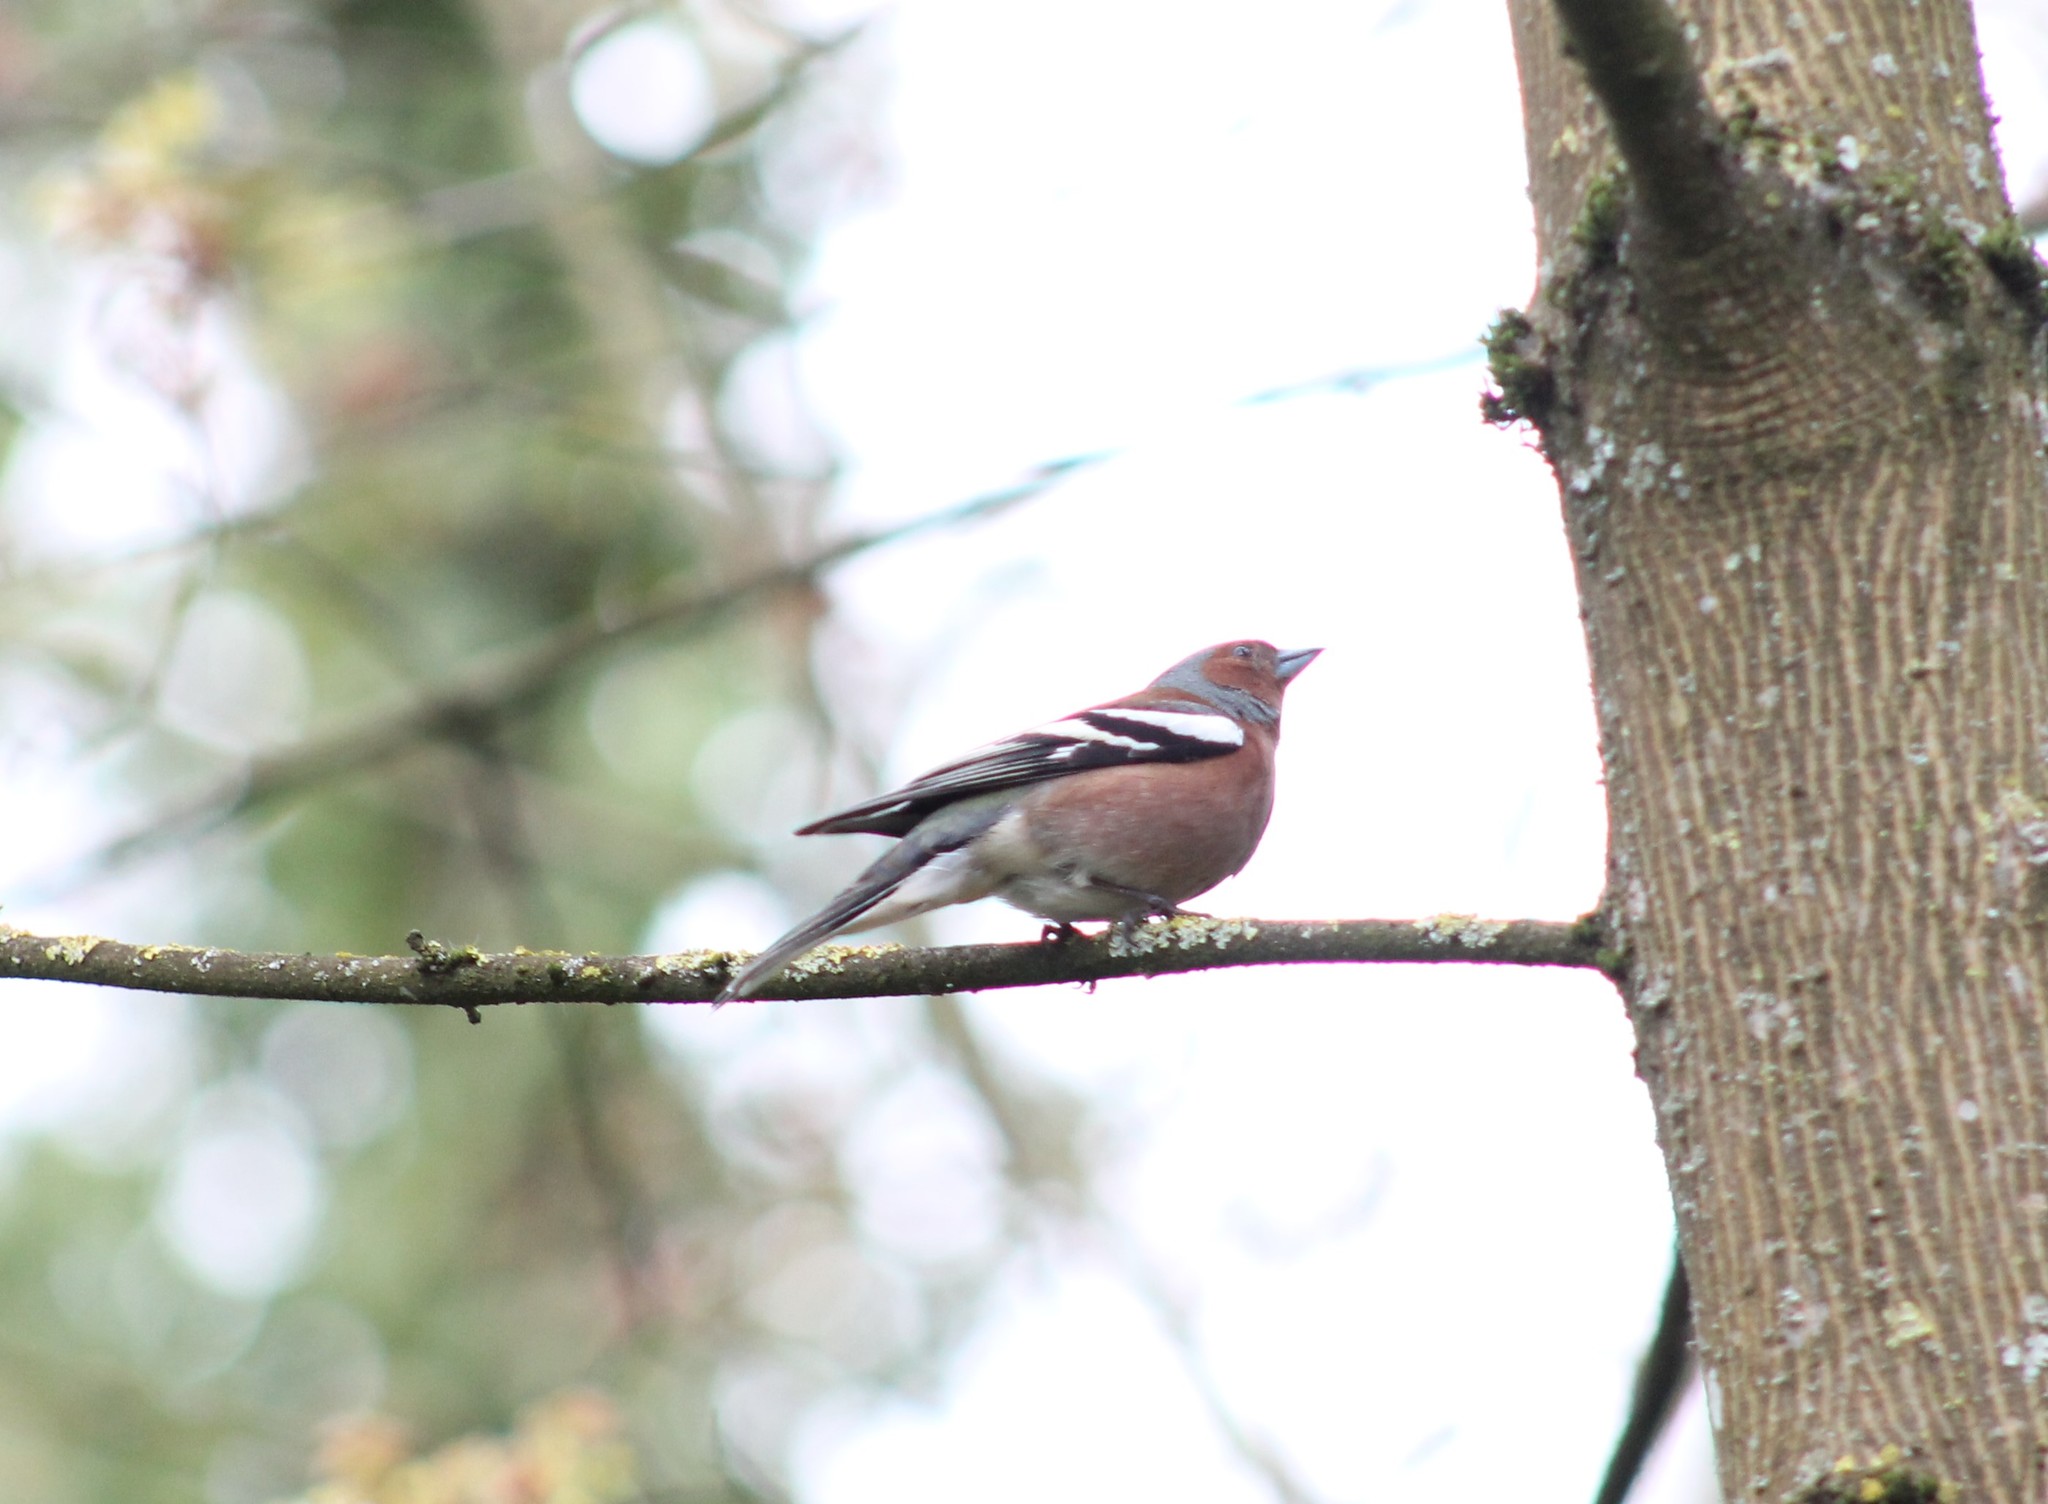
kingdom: Animalia
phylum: Chordata
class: Aves
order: Passeriformes
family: Fringillidae
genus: Fringilla
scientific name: Fringilla coelebs
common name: Common chaffinch
